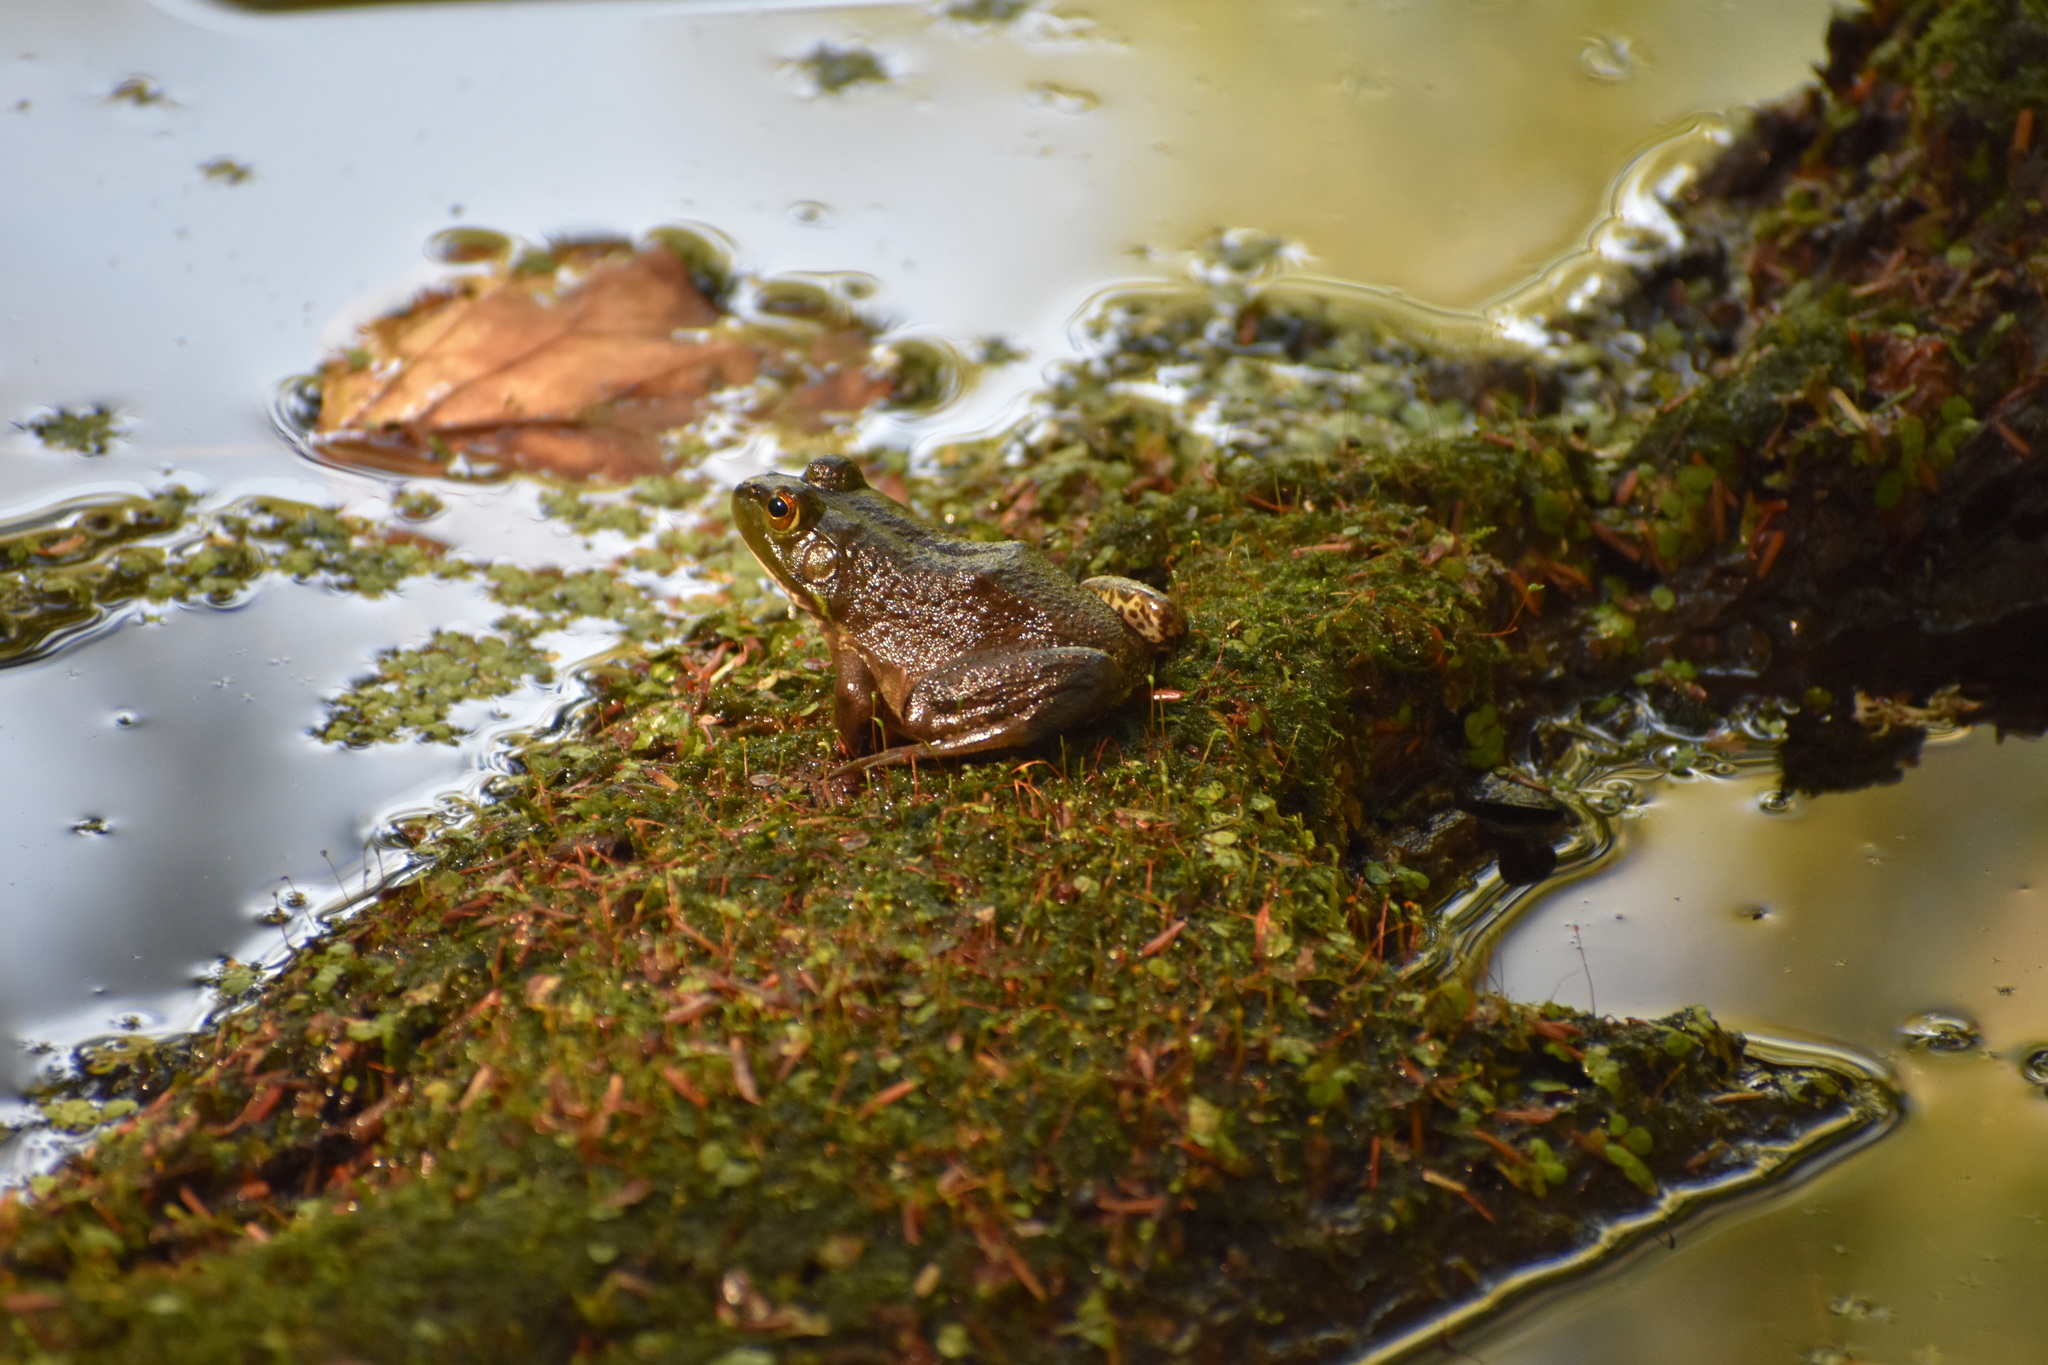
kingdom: Animalia
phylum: Chordata
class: Amphibia
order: Anura
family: Ranidae
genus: Lithobates
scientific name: Lithobates catesbeianus
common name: American bullfrog
